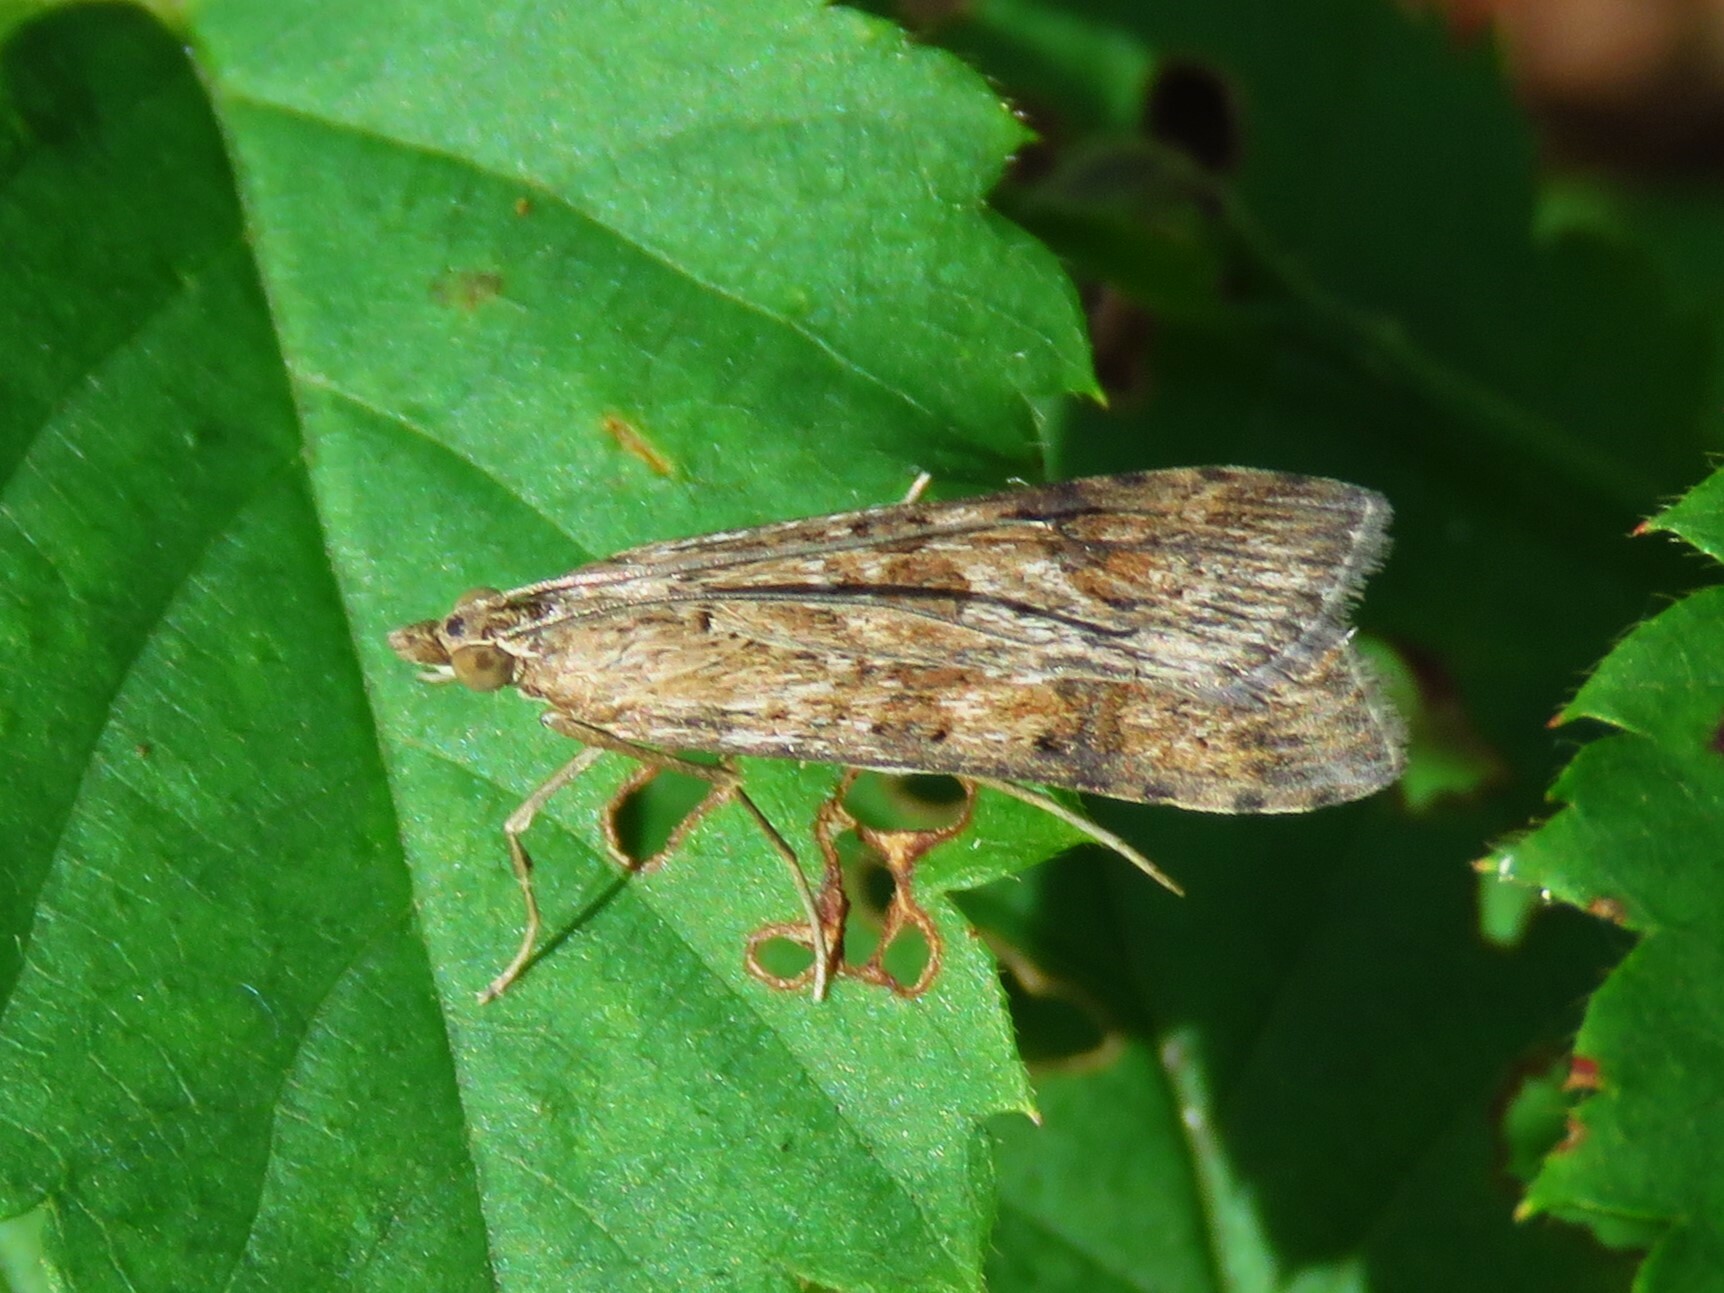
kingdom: Animalia
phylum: Arthropoda
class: Insecta
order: Lepidoptera
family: Crambidae
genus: Nomophila
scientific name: Nomophila nearctica
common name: American rush veneer
